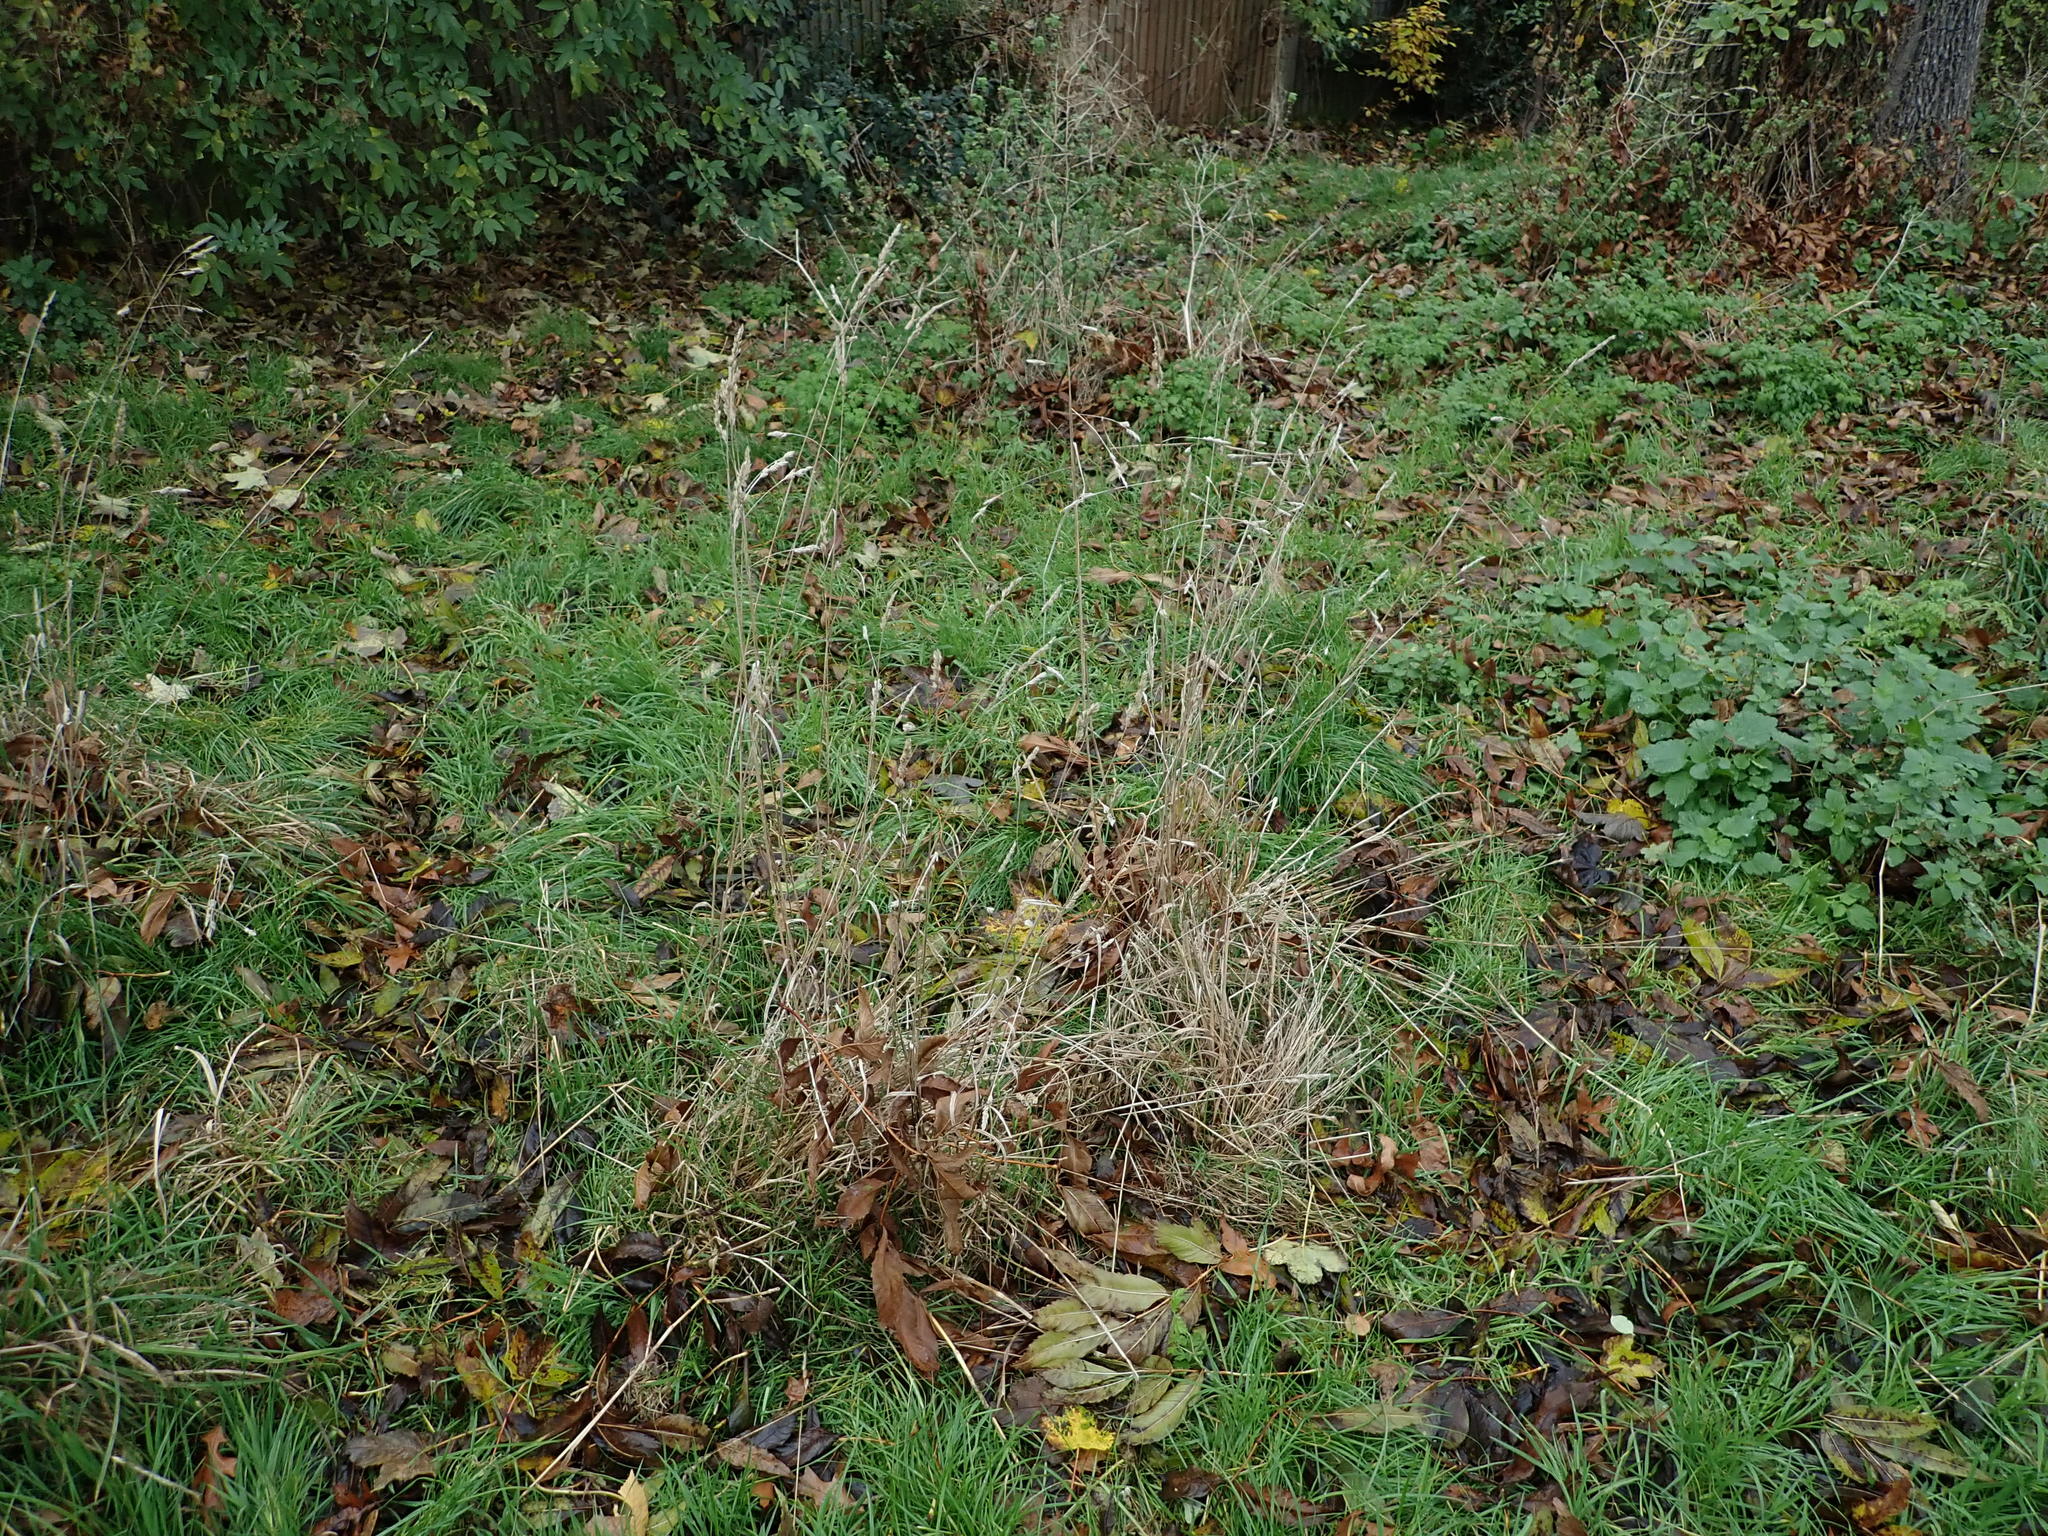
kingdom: Plantae
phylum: Tracheophyta
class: Liliopsida
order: Poales
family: Poaceae
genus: Dactylis
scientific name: Dactylis glomerata
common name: Orchardgrass
